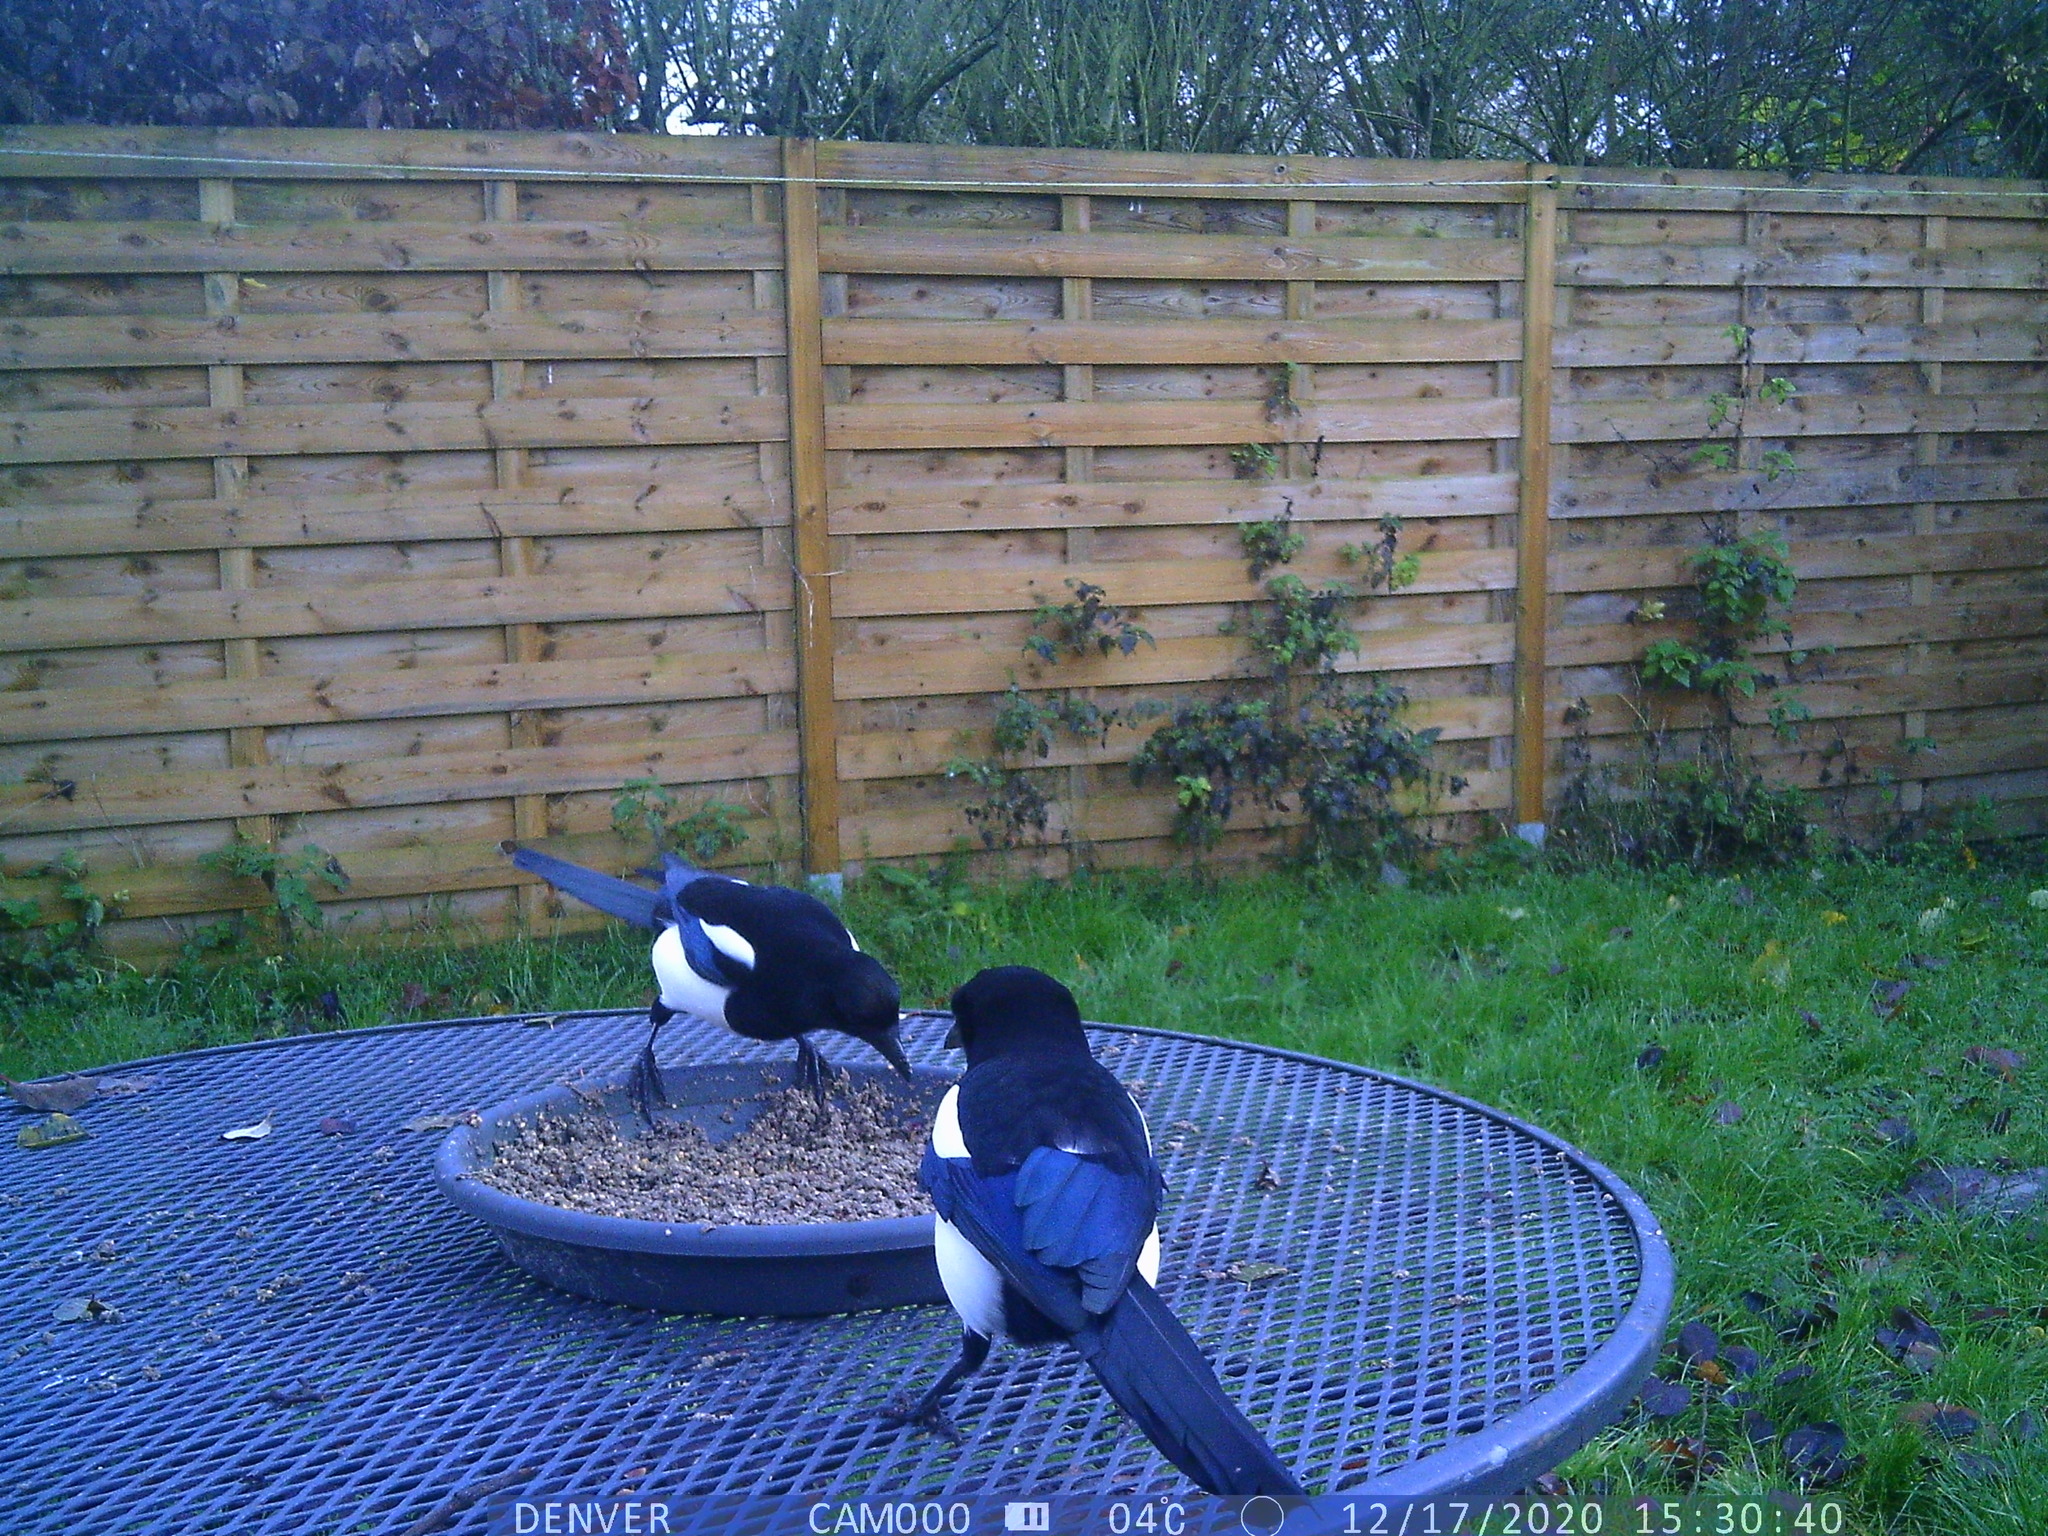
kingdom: Animalia
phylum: Chordata
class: Aves
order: Passeriformes
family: Corvidae
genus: Pica
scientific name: Pica pica
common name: Eurasian magpie
